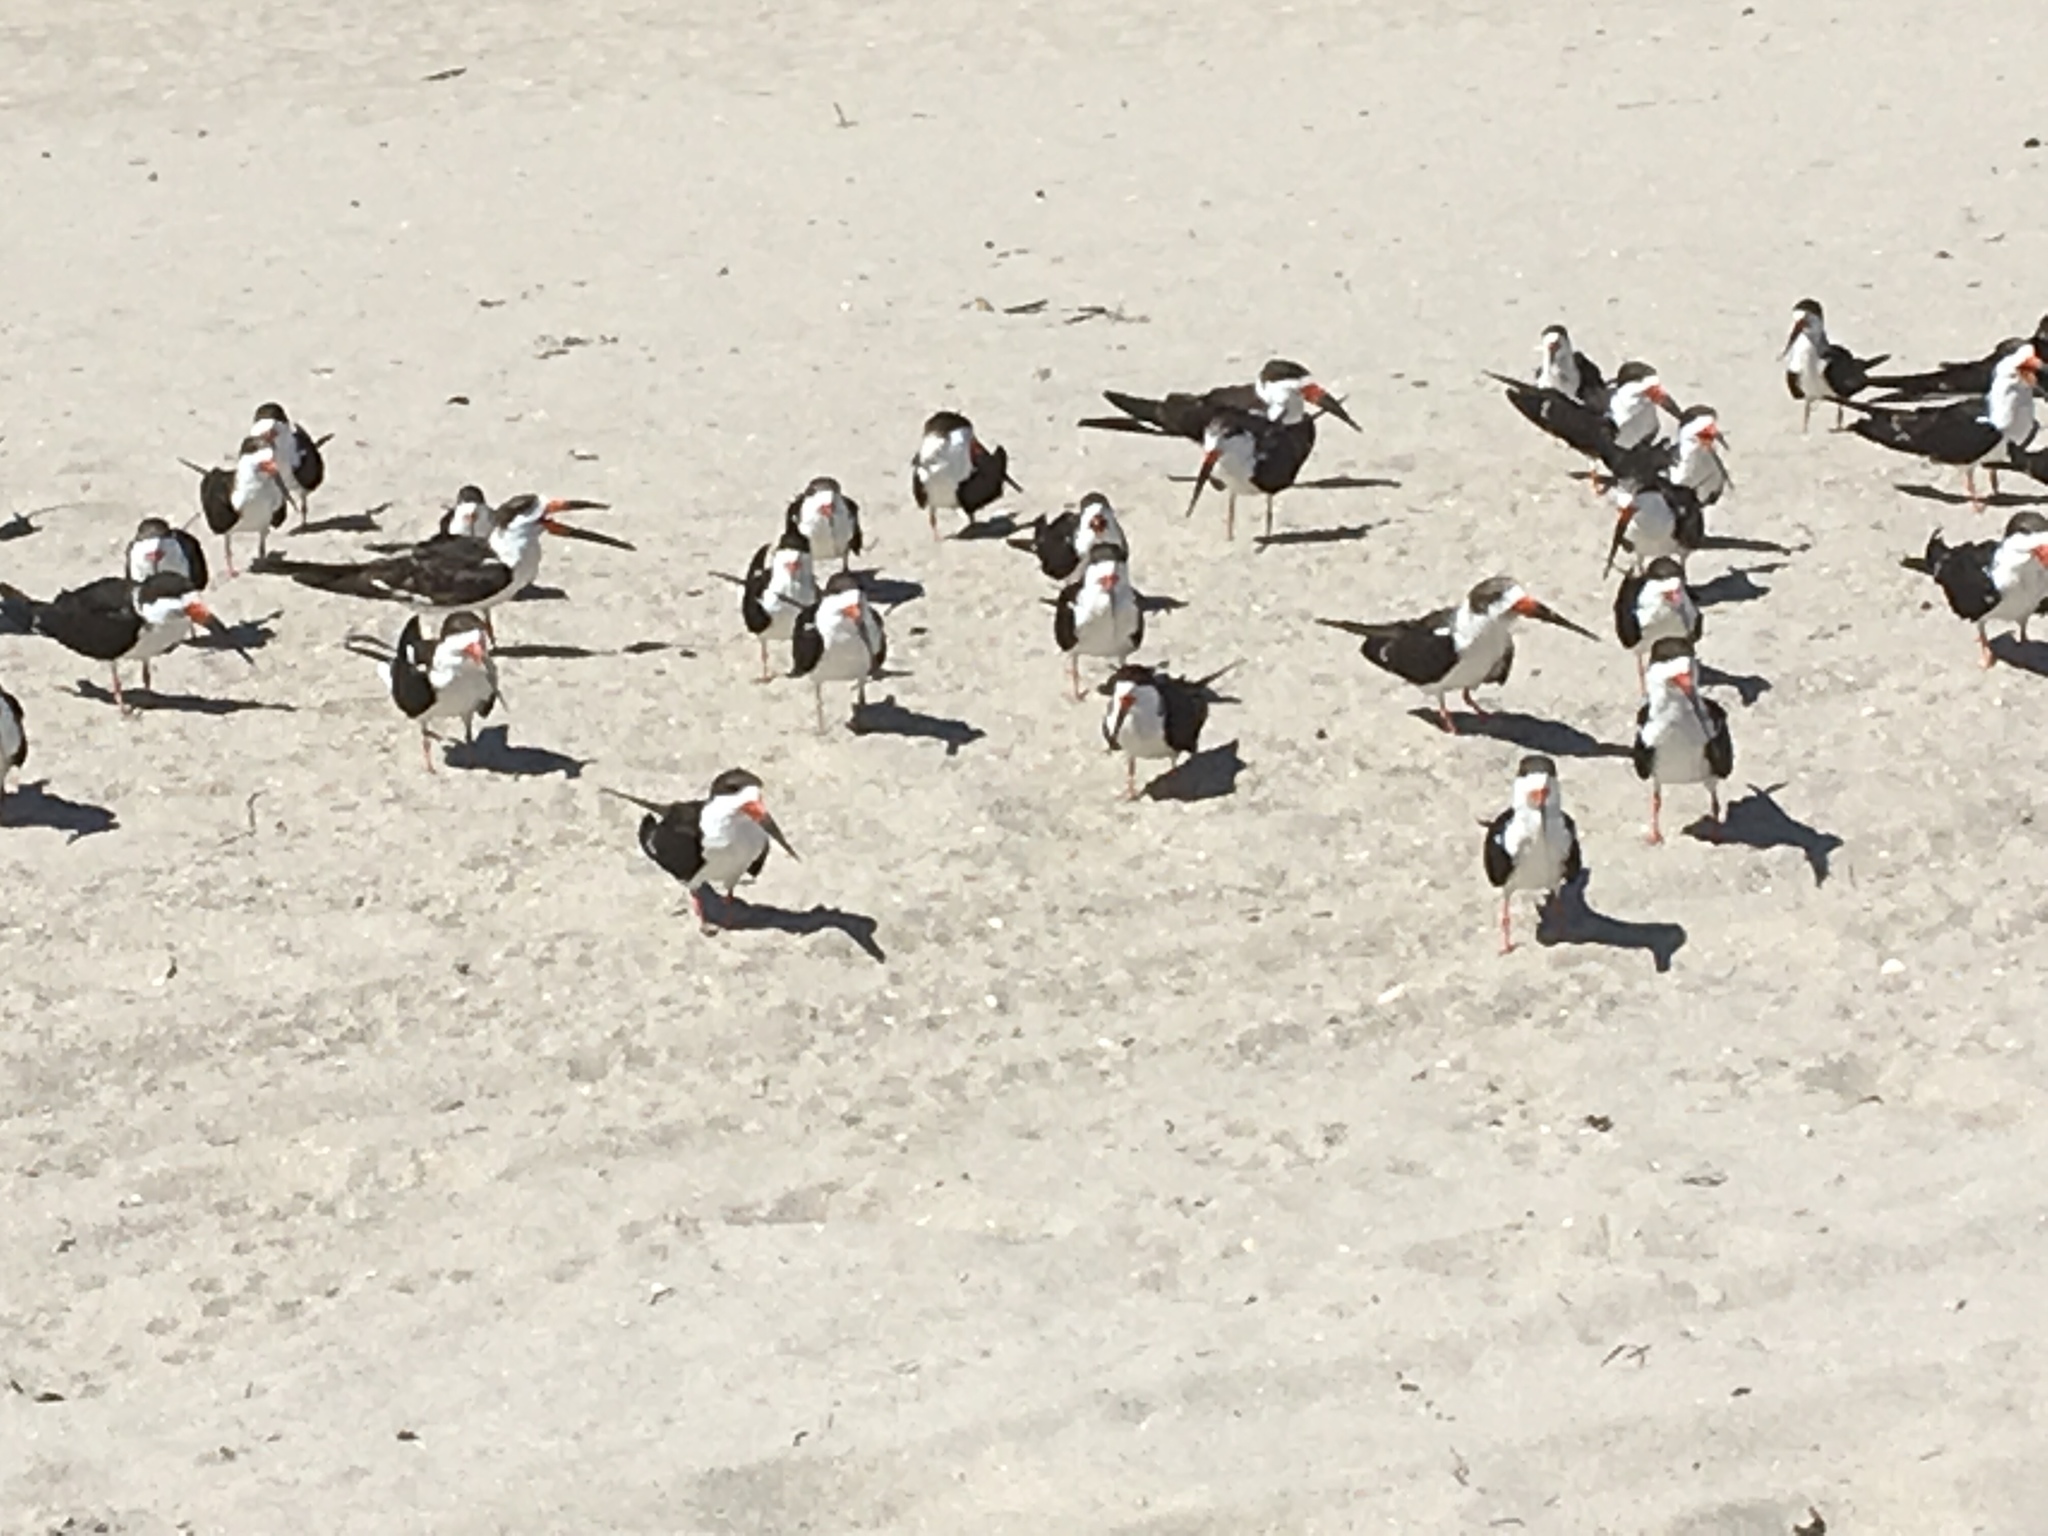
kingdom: Animalia
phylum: Chordata
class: Aves
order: Charadriiformes
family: Laridae
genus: Rynchops
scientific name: Rynchops niger
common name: Black skimmer
